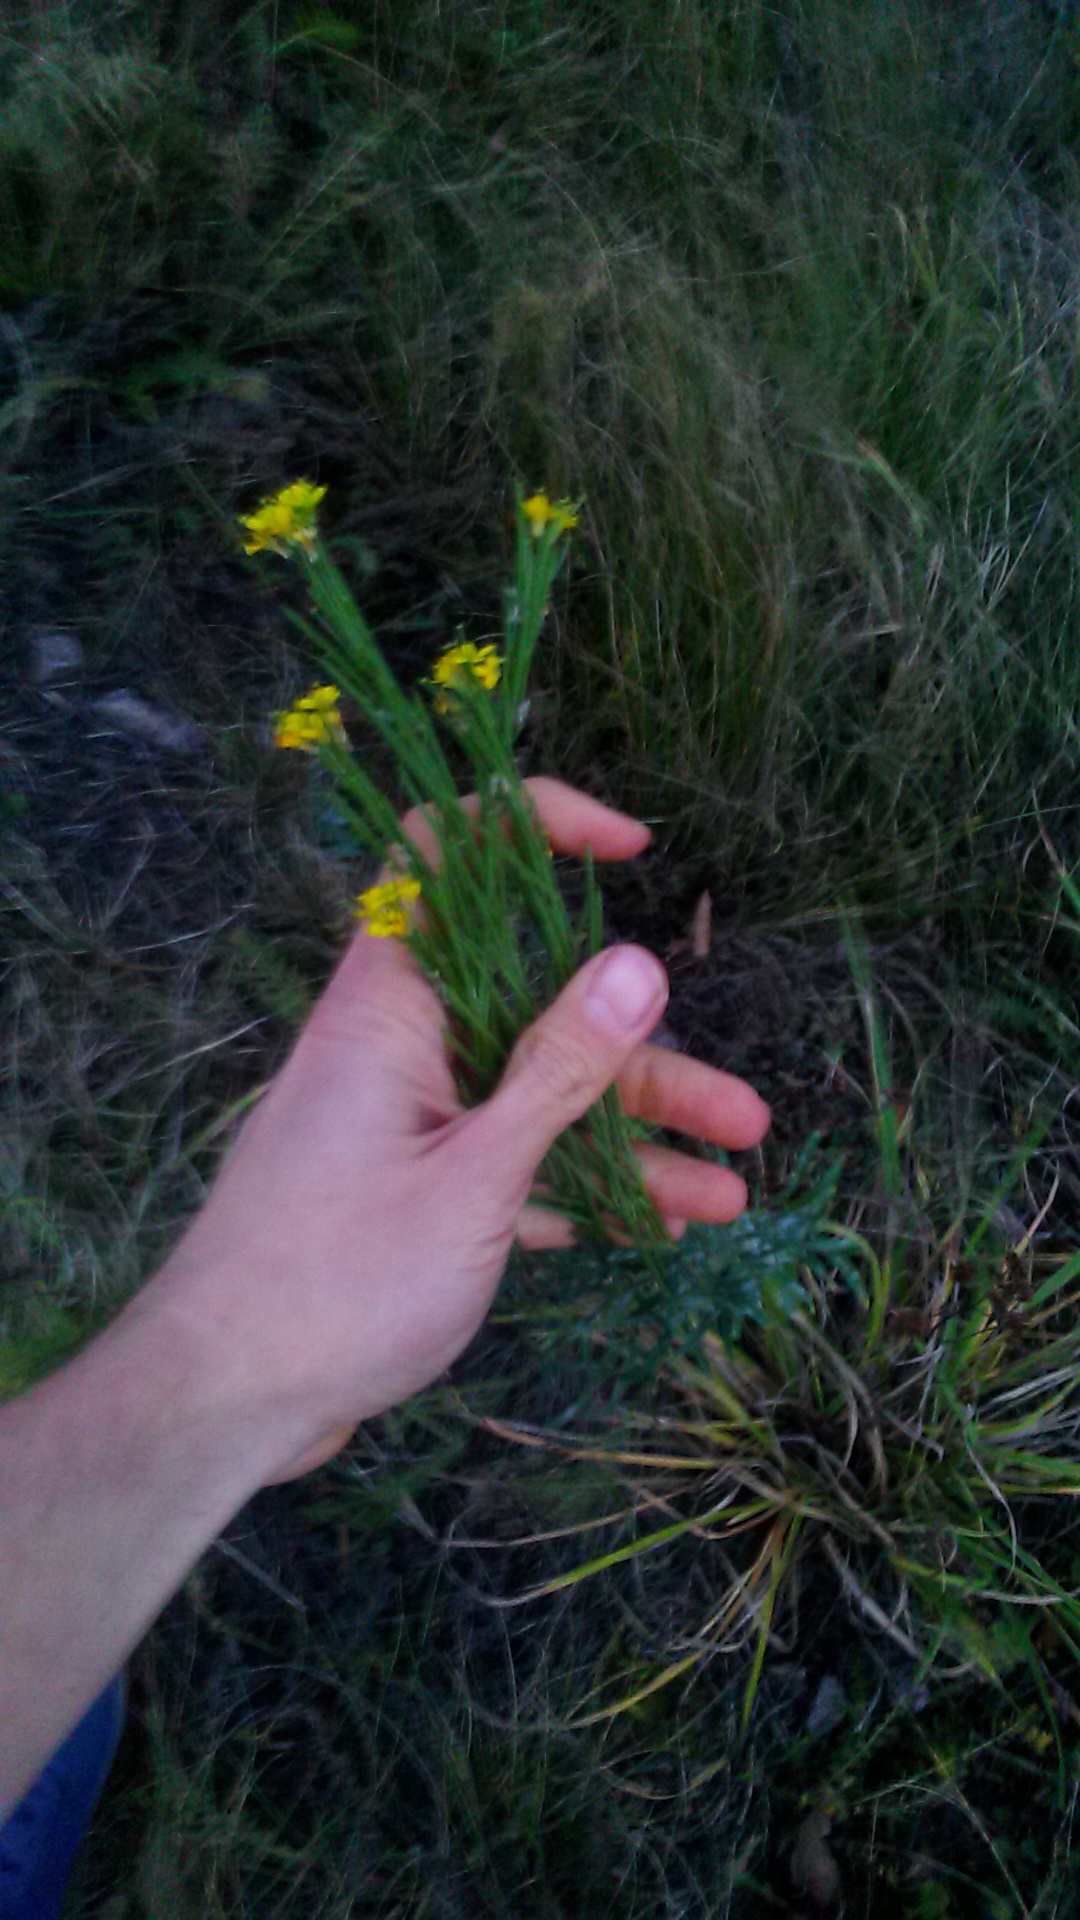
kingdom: Plantae
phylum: Tracheophyta
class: Magnoliopsida
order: Brassicales
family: Brassicaceae
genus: Erysimum
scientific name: Erysimum hieraciifolium
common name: European wallflower
